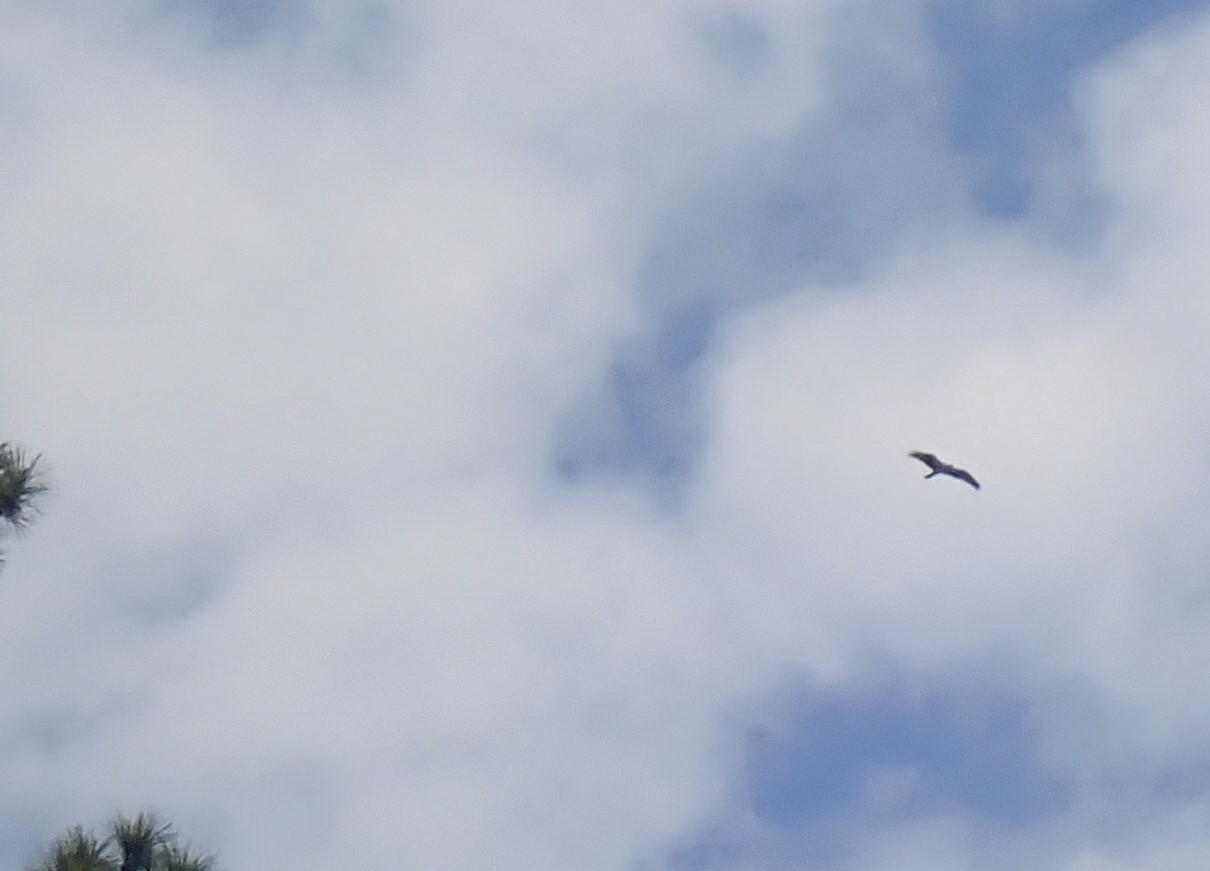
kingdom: Animalia
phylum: Chordata
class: Aves
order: Accipitriformes
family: Pandionidae
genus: Pandion
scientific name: Pandion haliaetus
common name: Osprey
